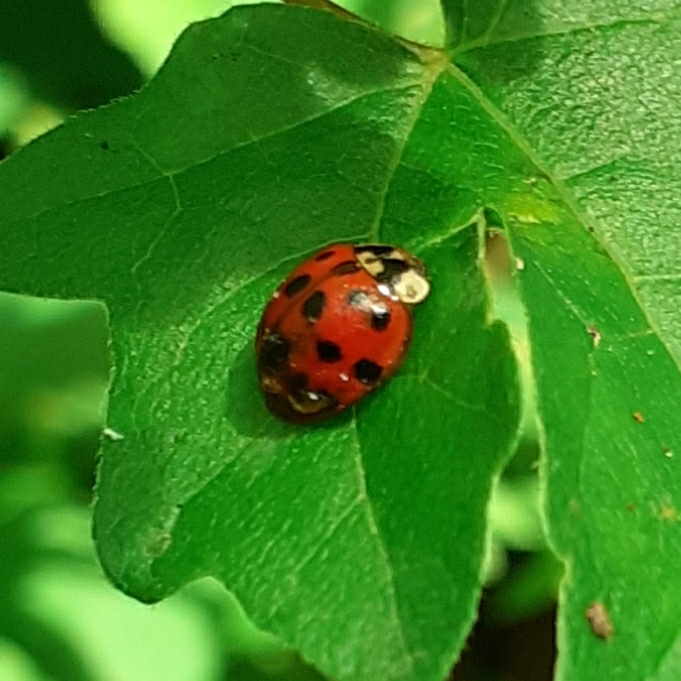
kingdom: Animalia
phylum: Arthropoda
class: Insecta
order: Coleoptera
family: Coccinellidae
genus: Harmonia
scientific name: Harmonia axyridis
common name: Harlequin ladybird
